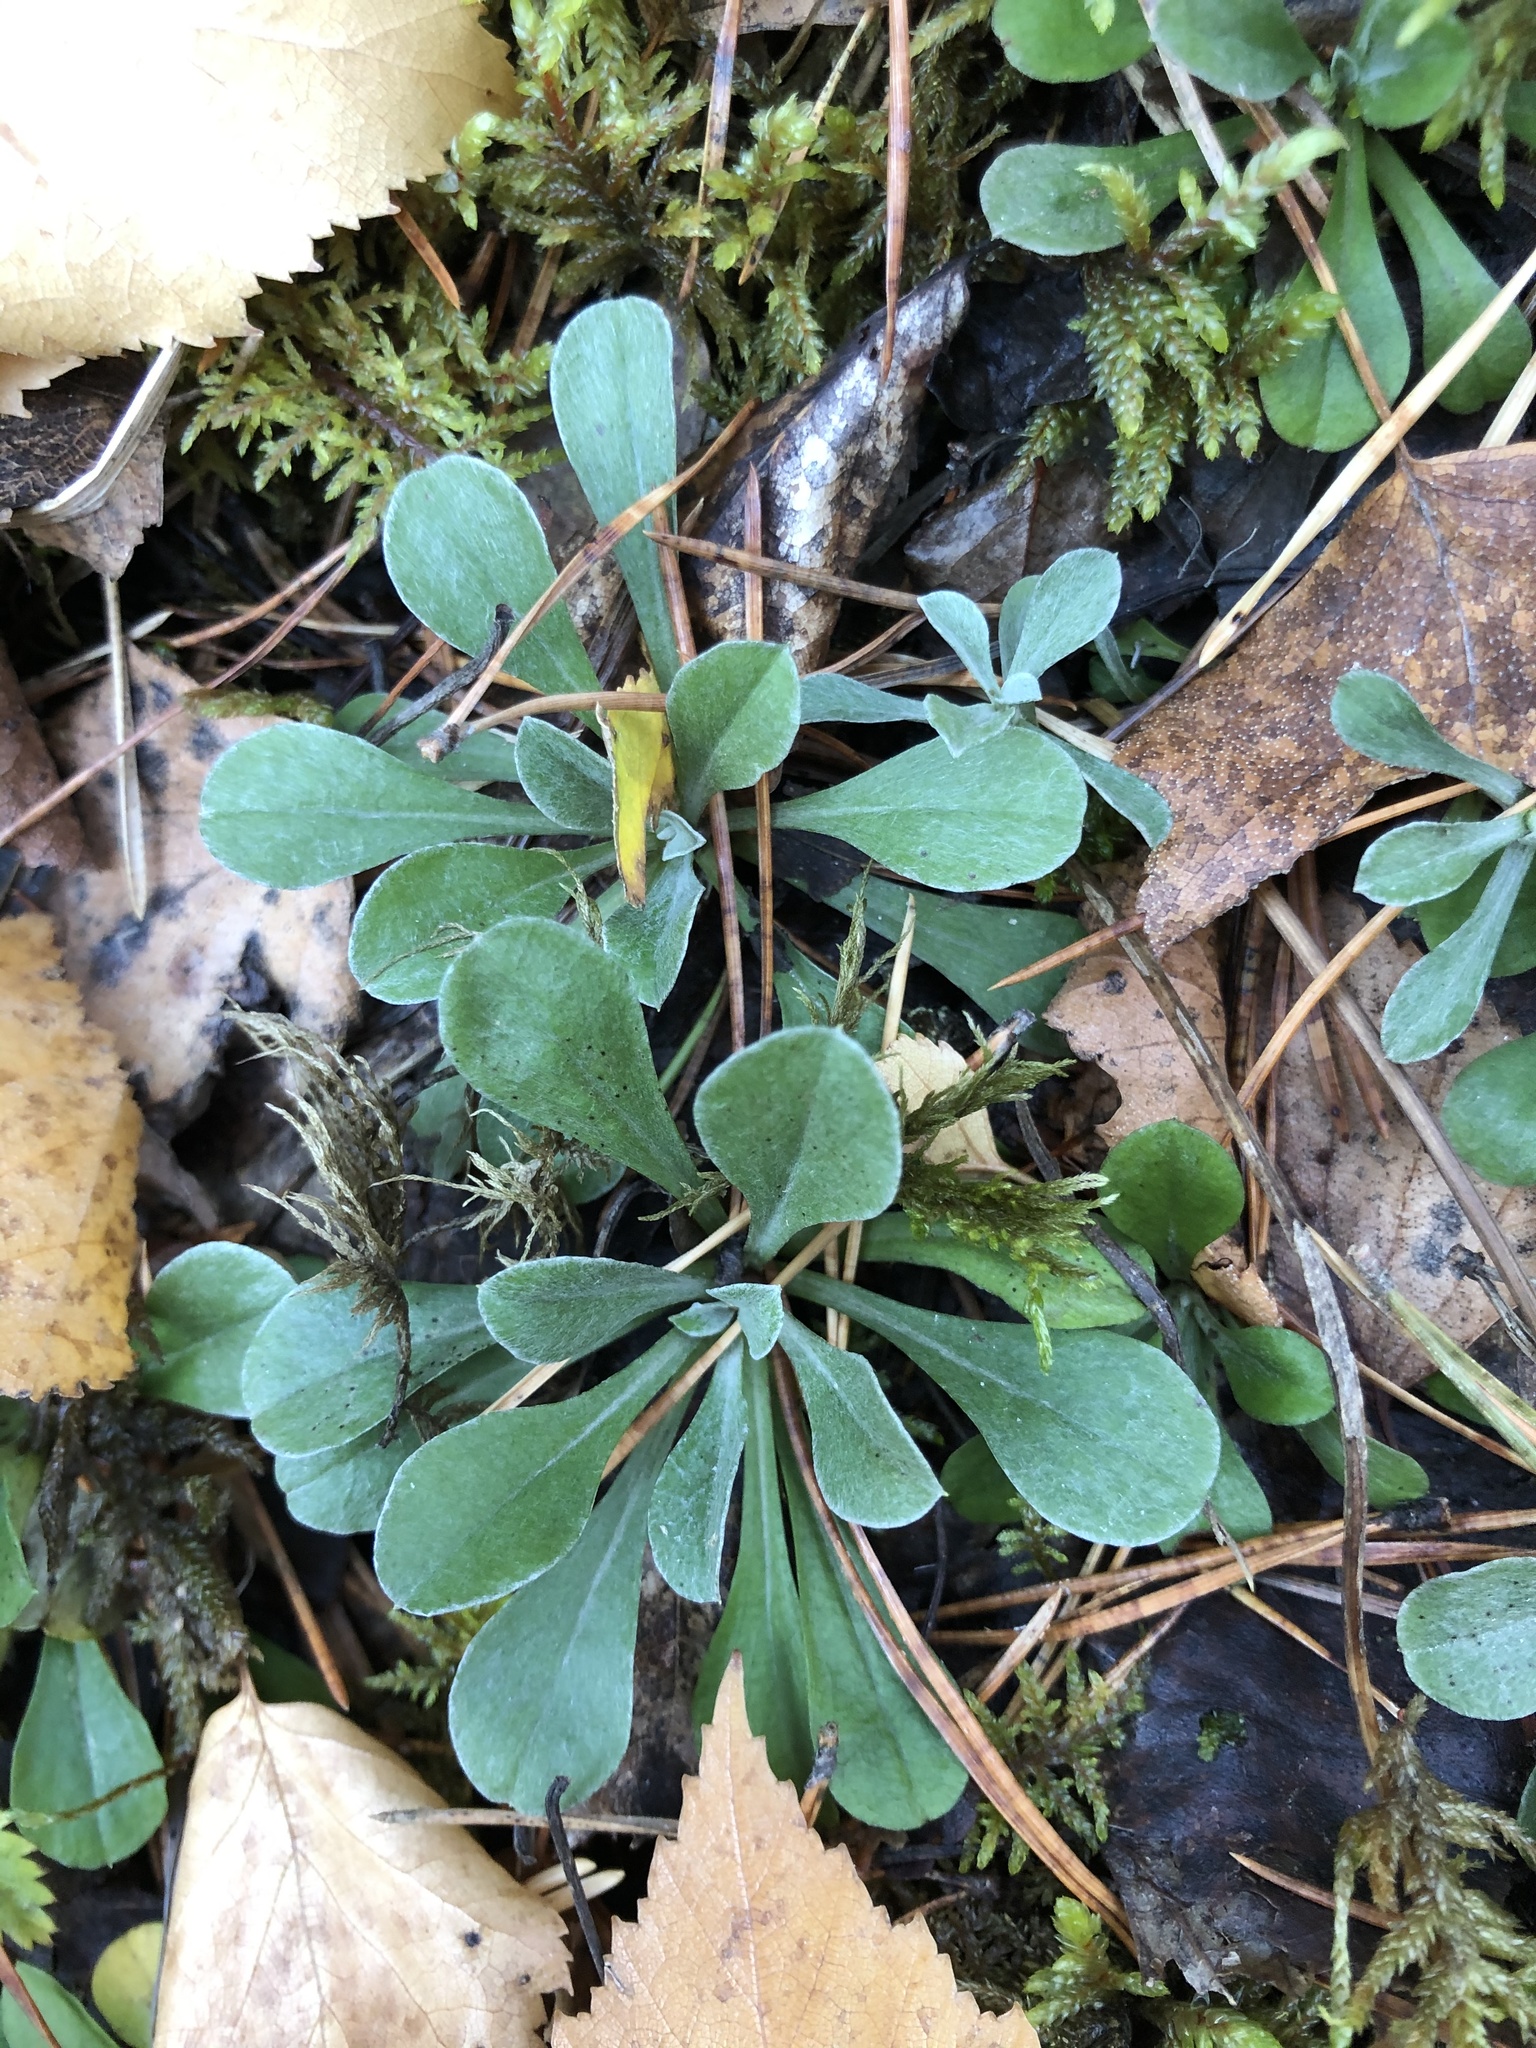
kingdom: Plantae
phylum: Tracheophyta
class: Magnoliopsida
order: Asterales
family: Asteraceae
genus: Antennaria
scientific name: Antennaria dioica
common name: Mountain everlasting
